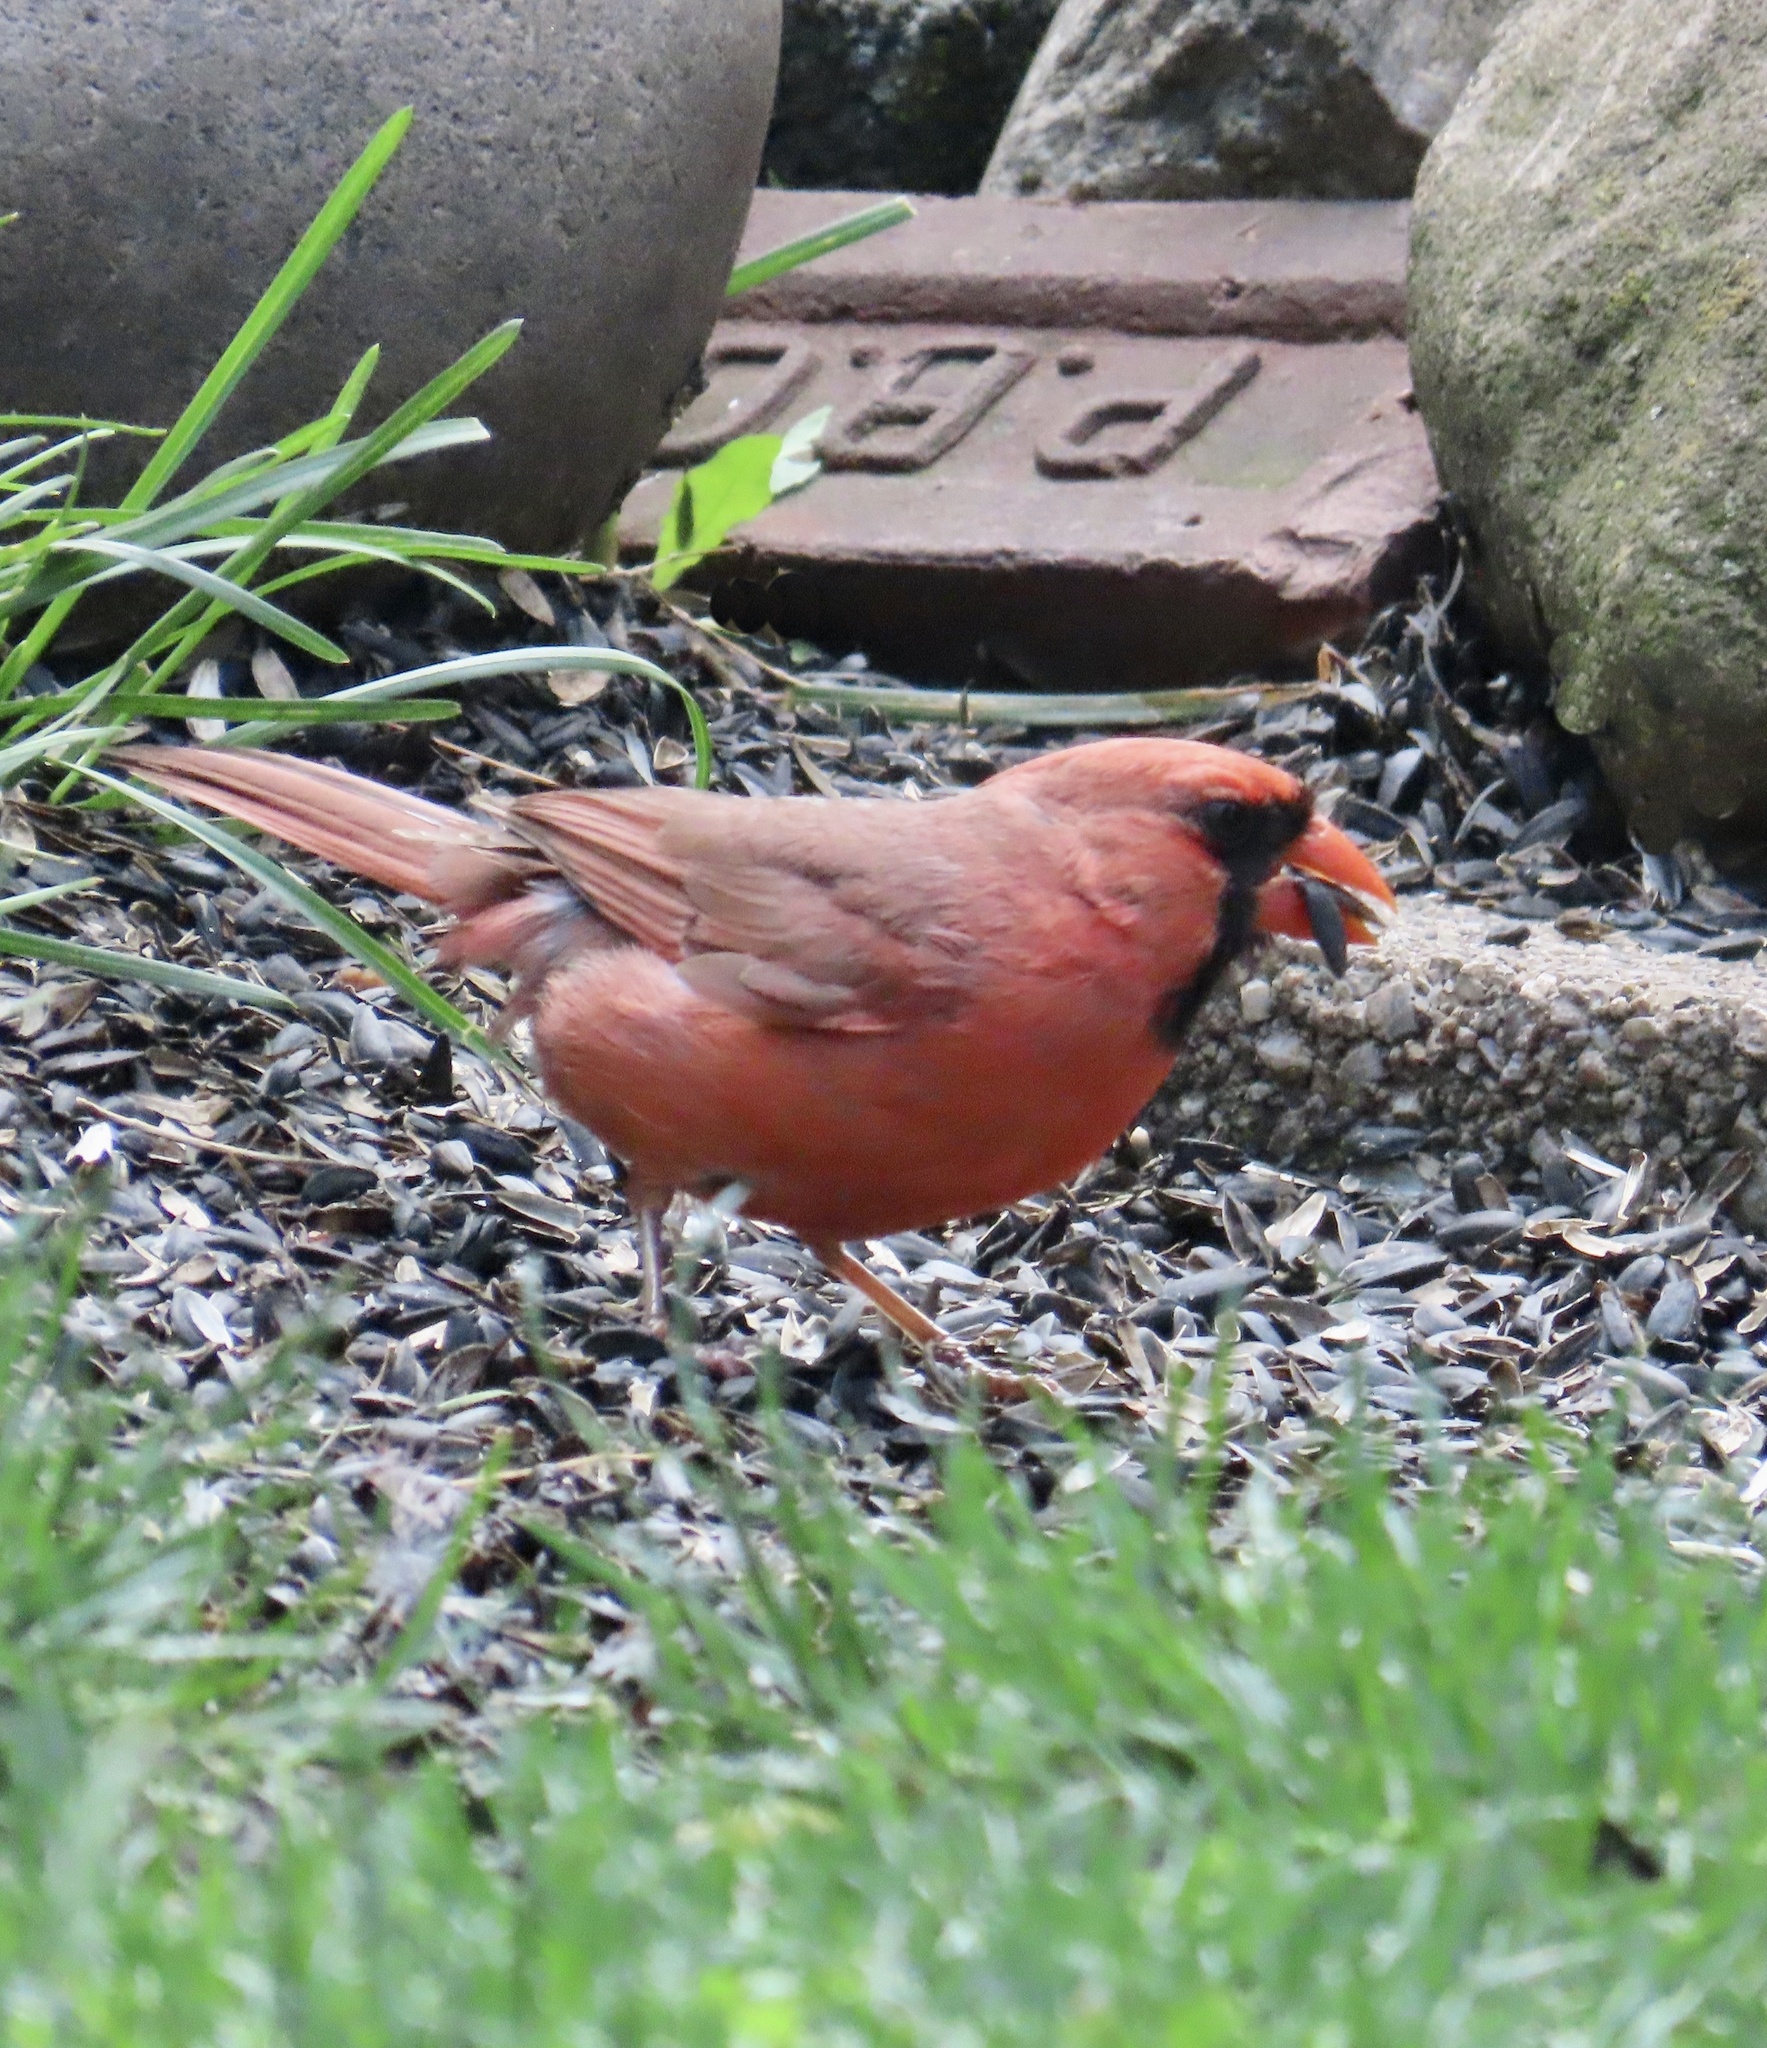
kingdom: Animalia
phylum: Chordata
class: Aves
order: Passeriformes
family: Cardinalidae
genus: Cardinalis
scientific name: Cardinalis cardinalis
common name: Northern cardinal
